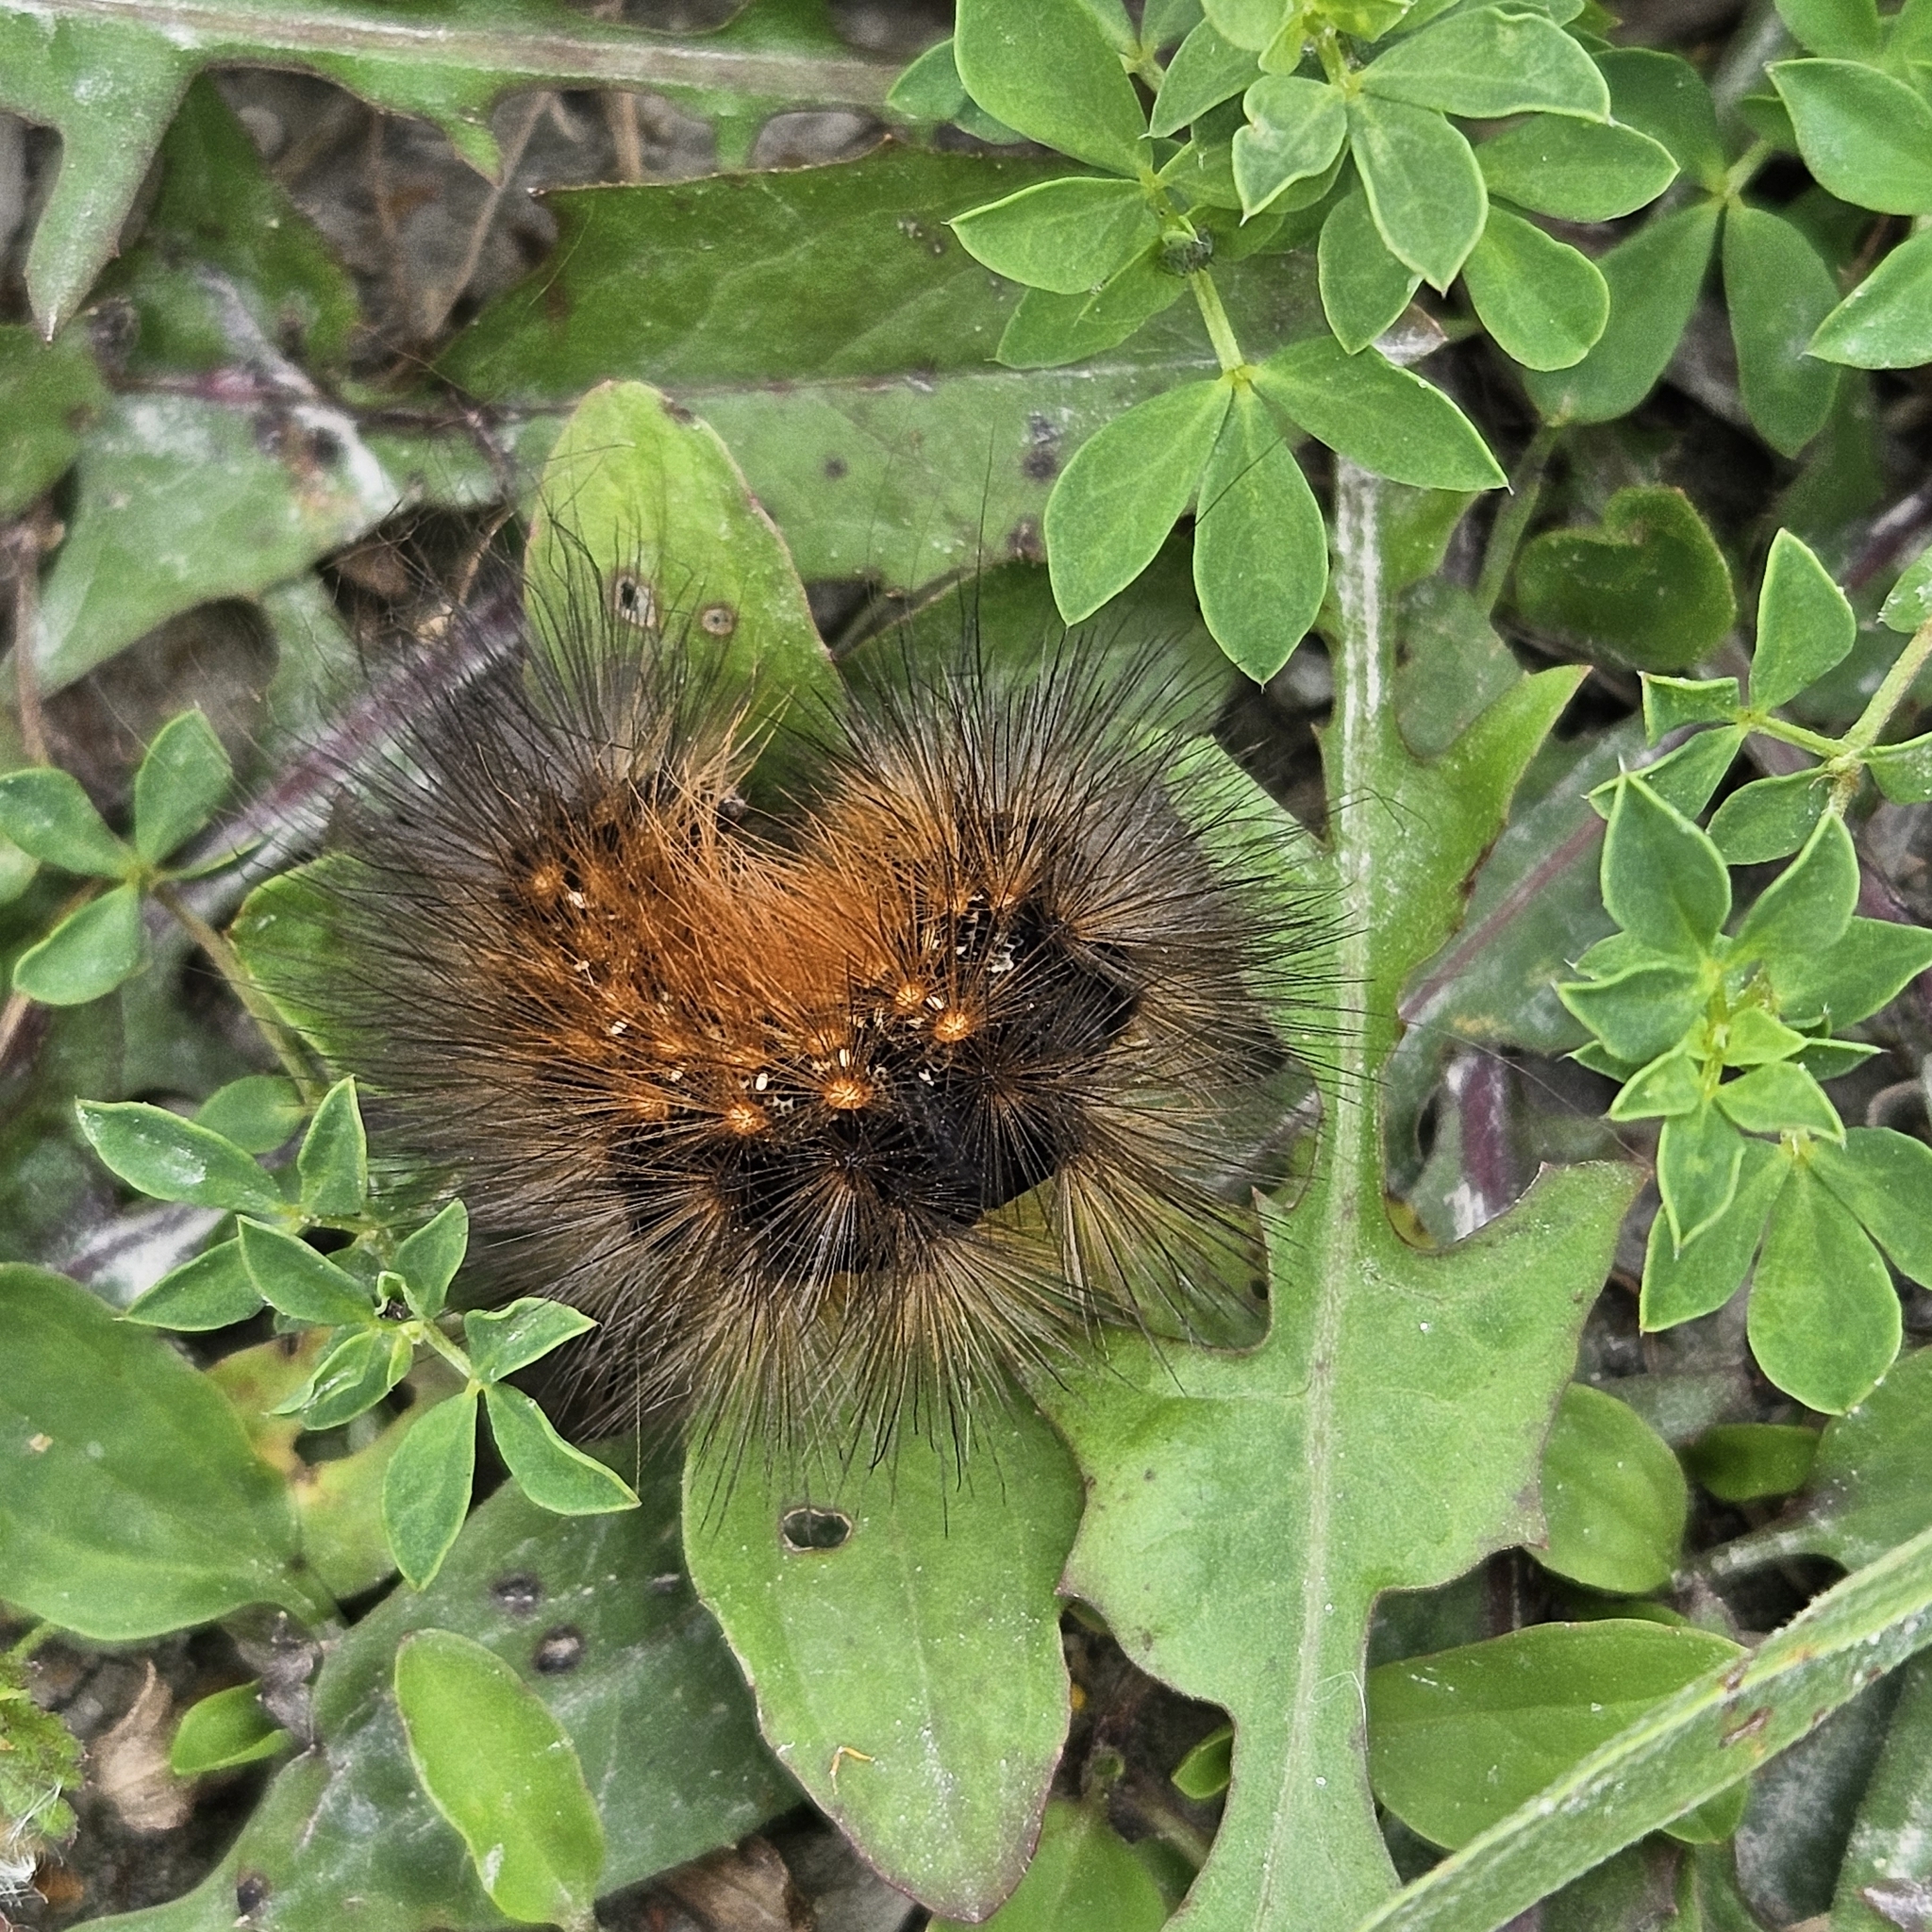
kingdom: Animalia
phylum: Arthropoda
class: Insecta
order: Lepidoptera
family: Erebidae
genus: Estigmene
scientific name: Estigmene acrea
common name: Salt marsh moth
